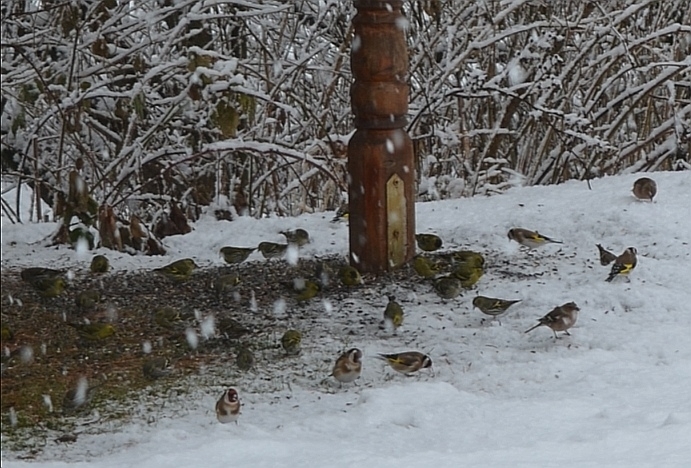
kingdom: Animalia
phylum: Chordata
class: Aves
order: Passeriformes
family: Fringillidae
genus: Spinus
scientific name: Spinus spinus
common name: Eurasian siskin
